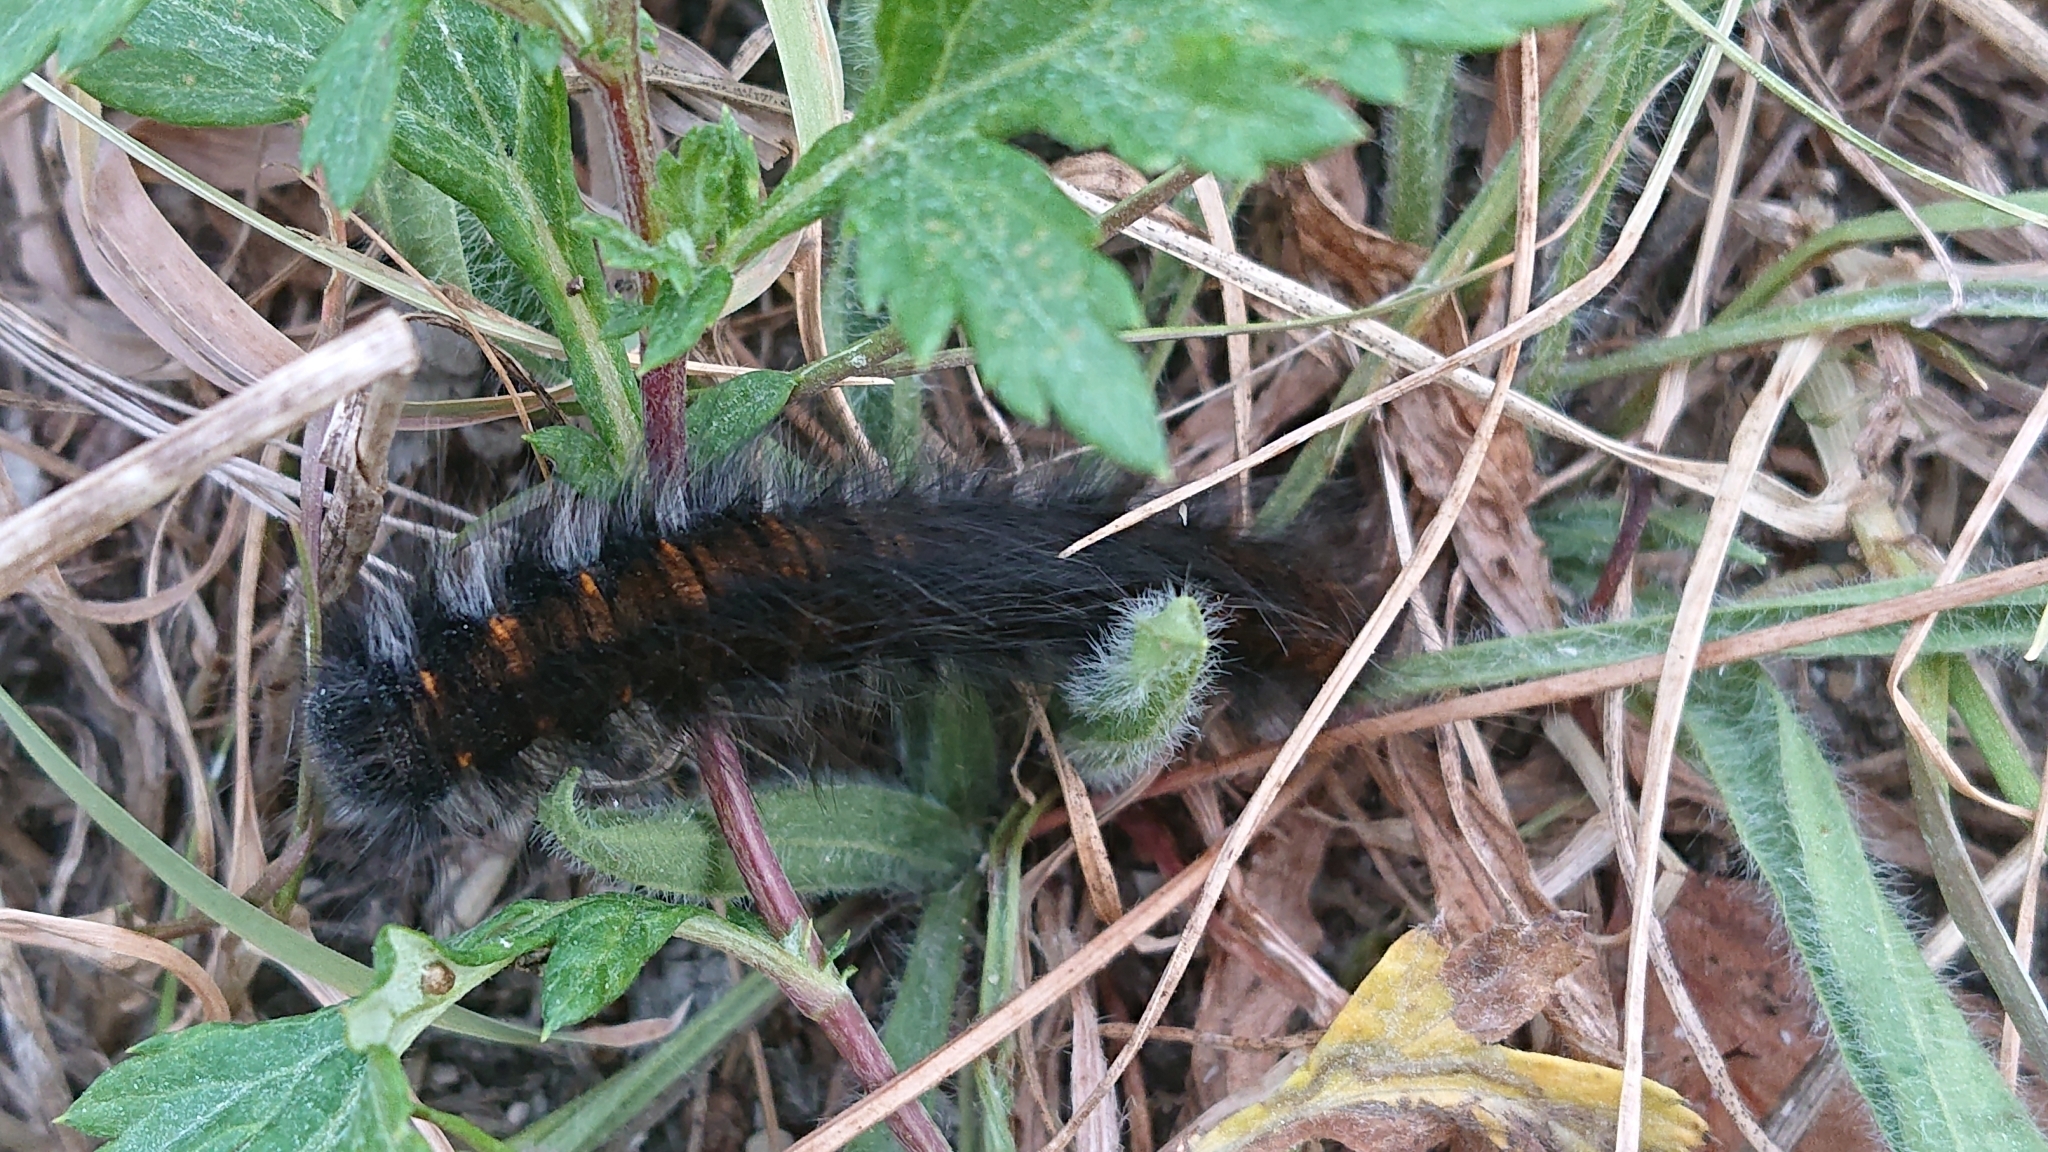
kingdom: Animalia
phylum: Arthropoda
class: Insecta
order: Lepidoptera
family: Lasiocampidae
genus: Macrothylacia
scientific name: Macrothylacia rubi
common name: Fox moth
